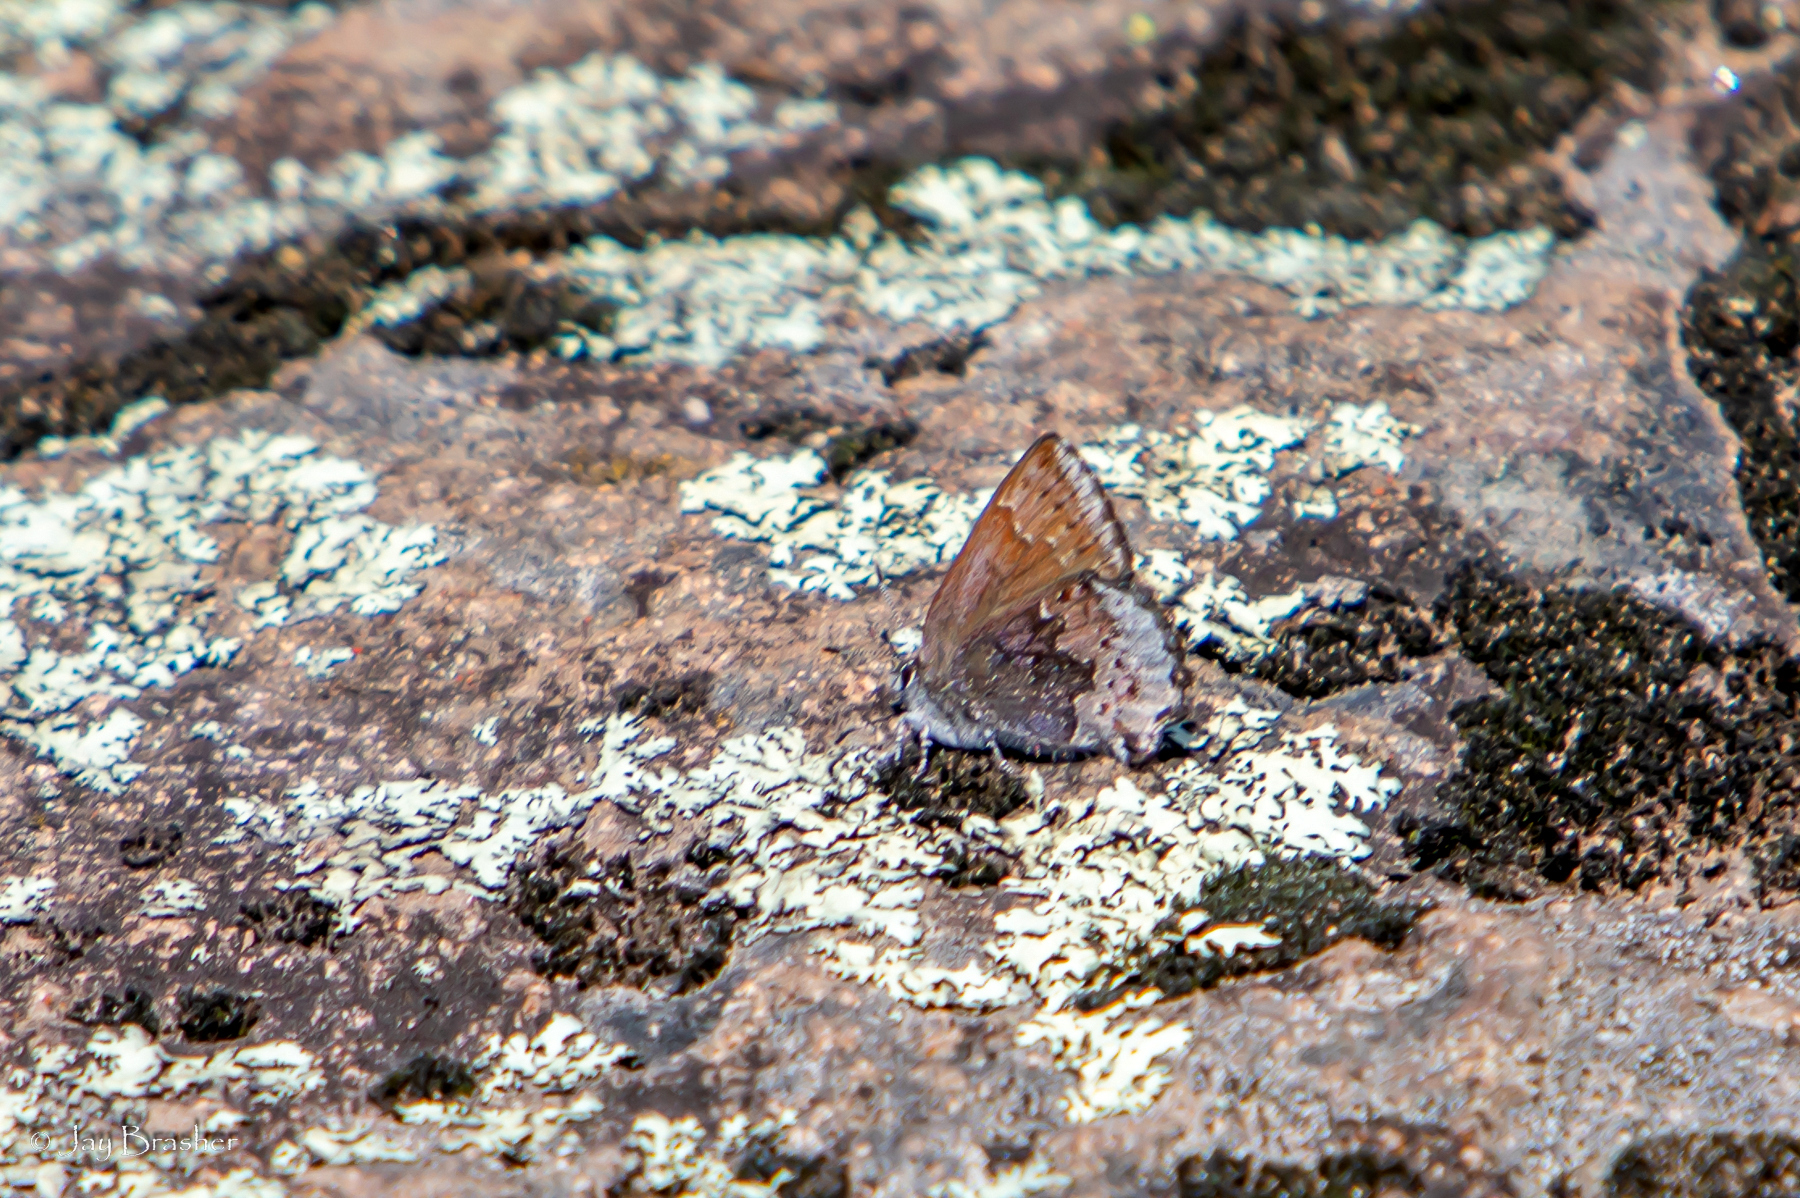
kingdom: Animalia
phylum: Arthropoda
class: Insecta
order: Lepidoptera
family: Lycaenidae
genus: Callophrys
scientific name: Callophrys polios
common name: Hoary elfin
